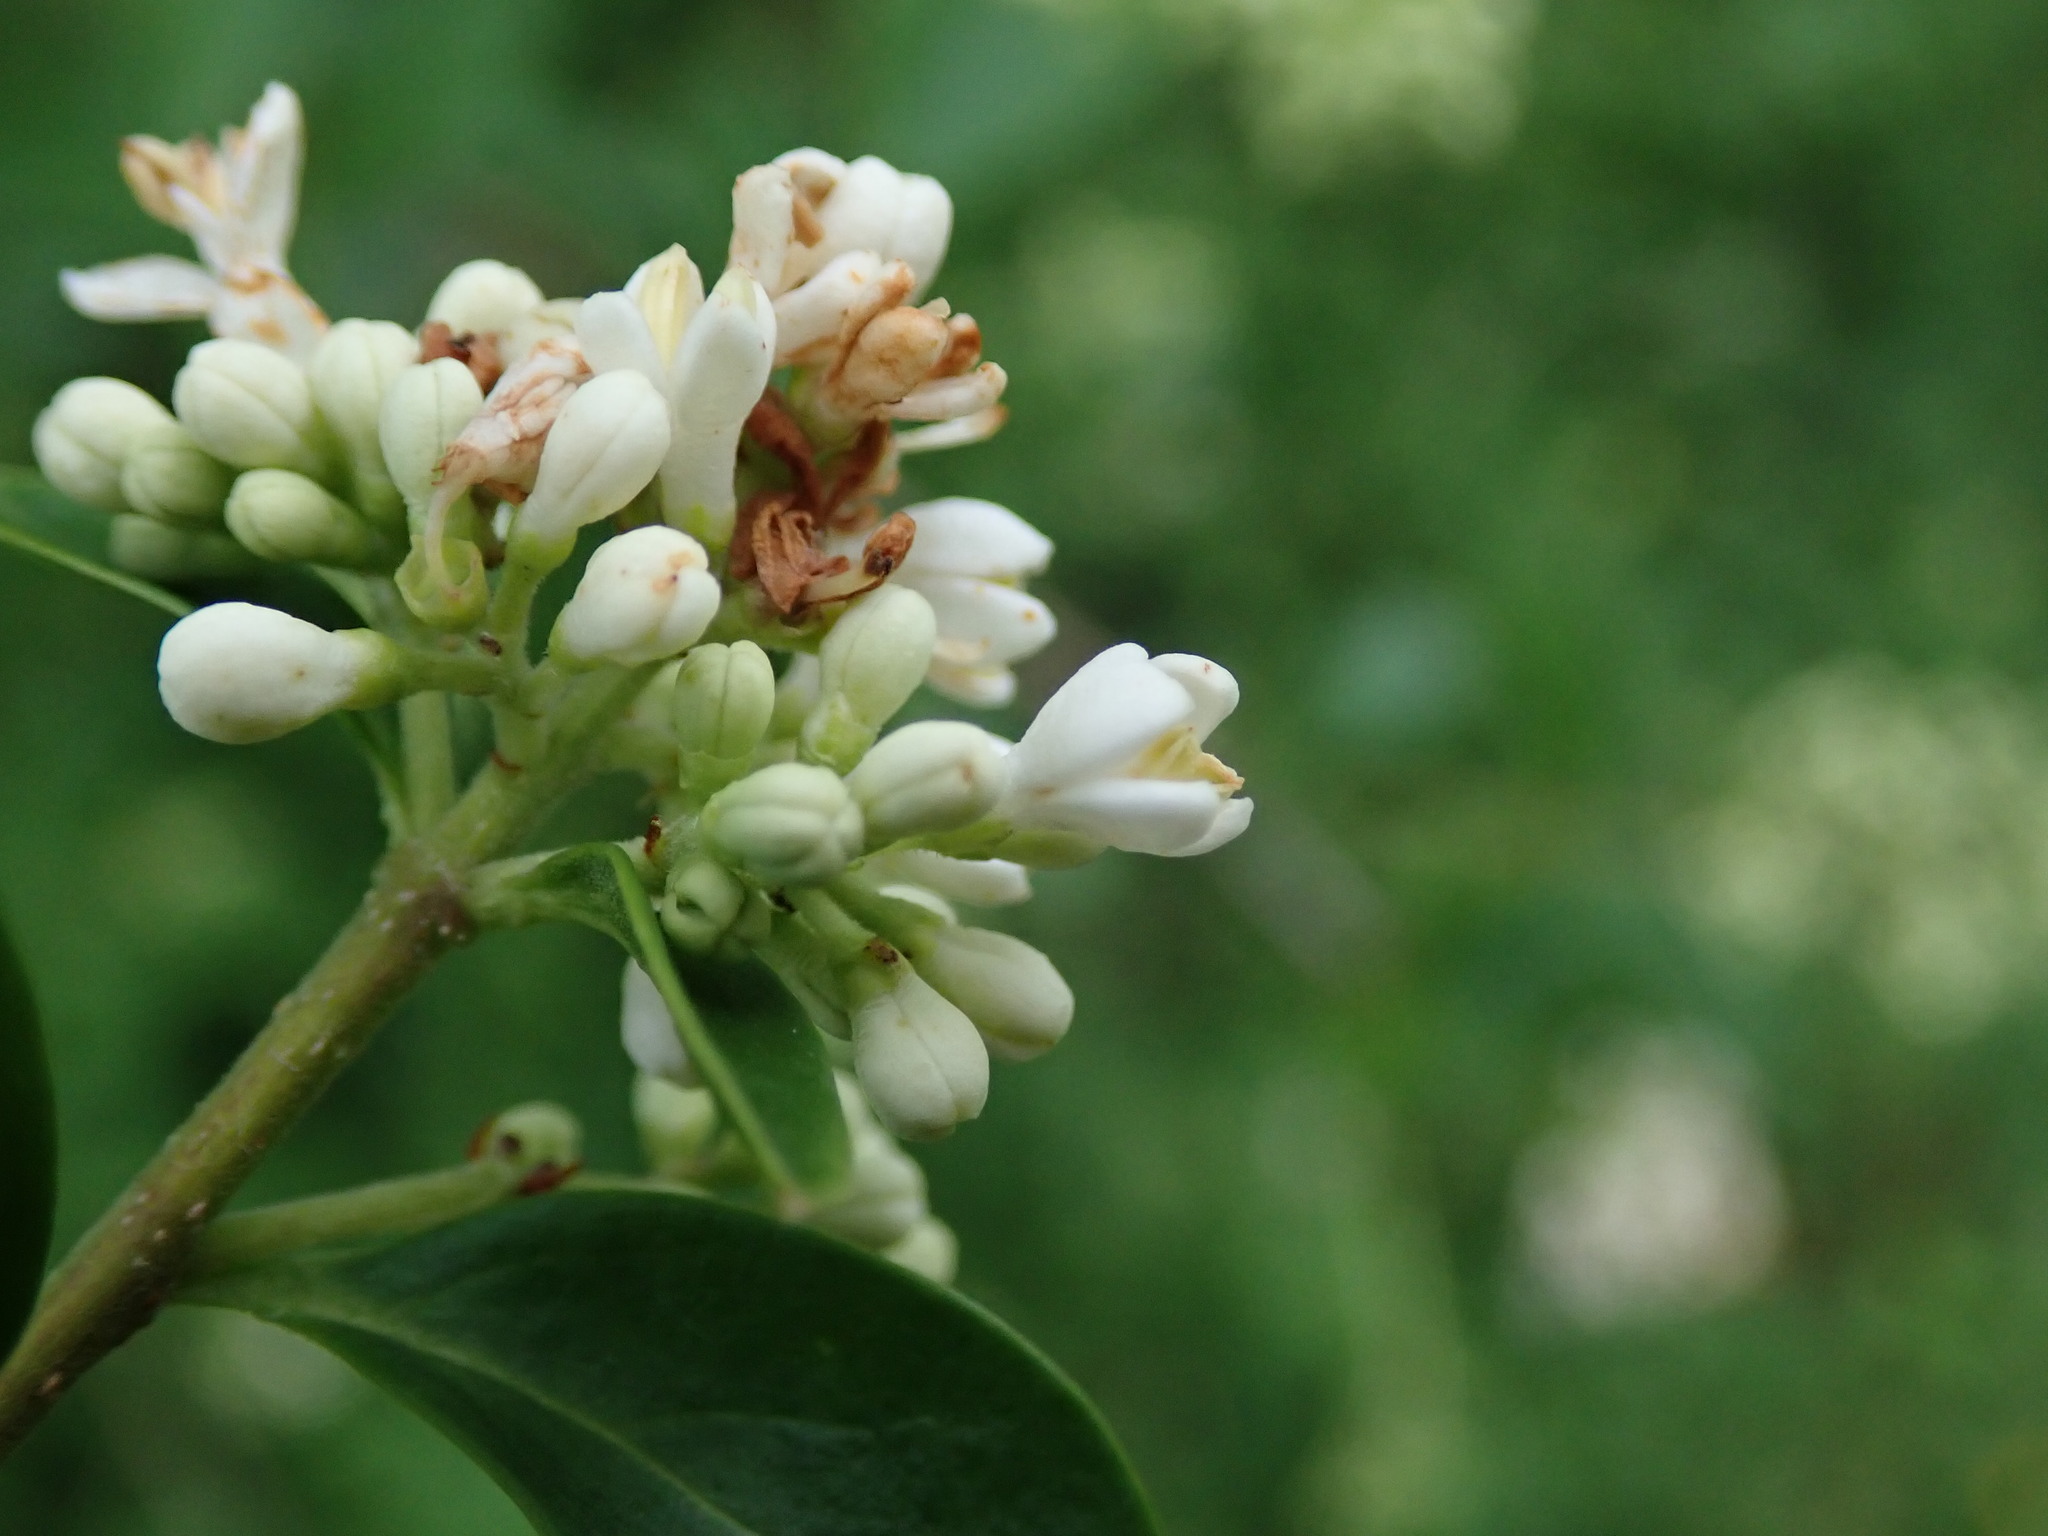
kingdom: Plantae
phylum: Tracheophyta
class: Magnoliopsida
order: Lamiales
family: Oleaceae
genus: Ligustrum
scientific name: Ligustrum vulgare
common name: Wild privet
